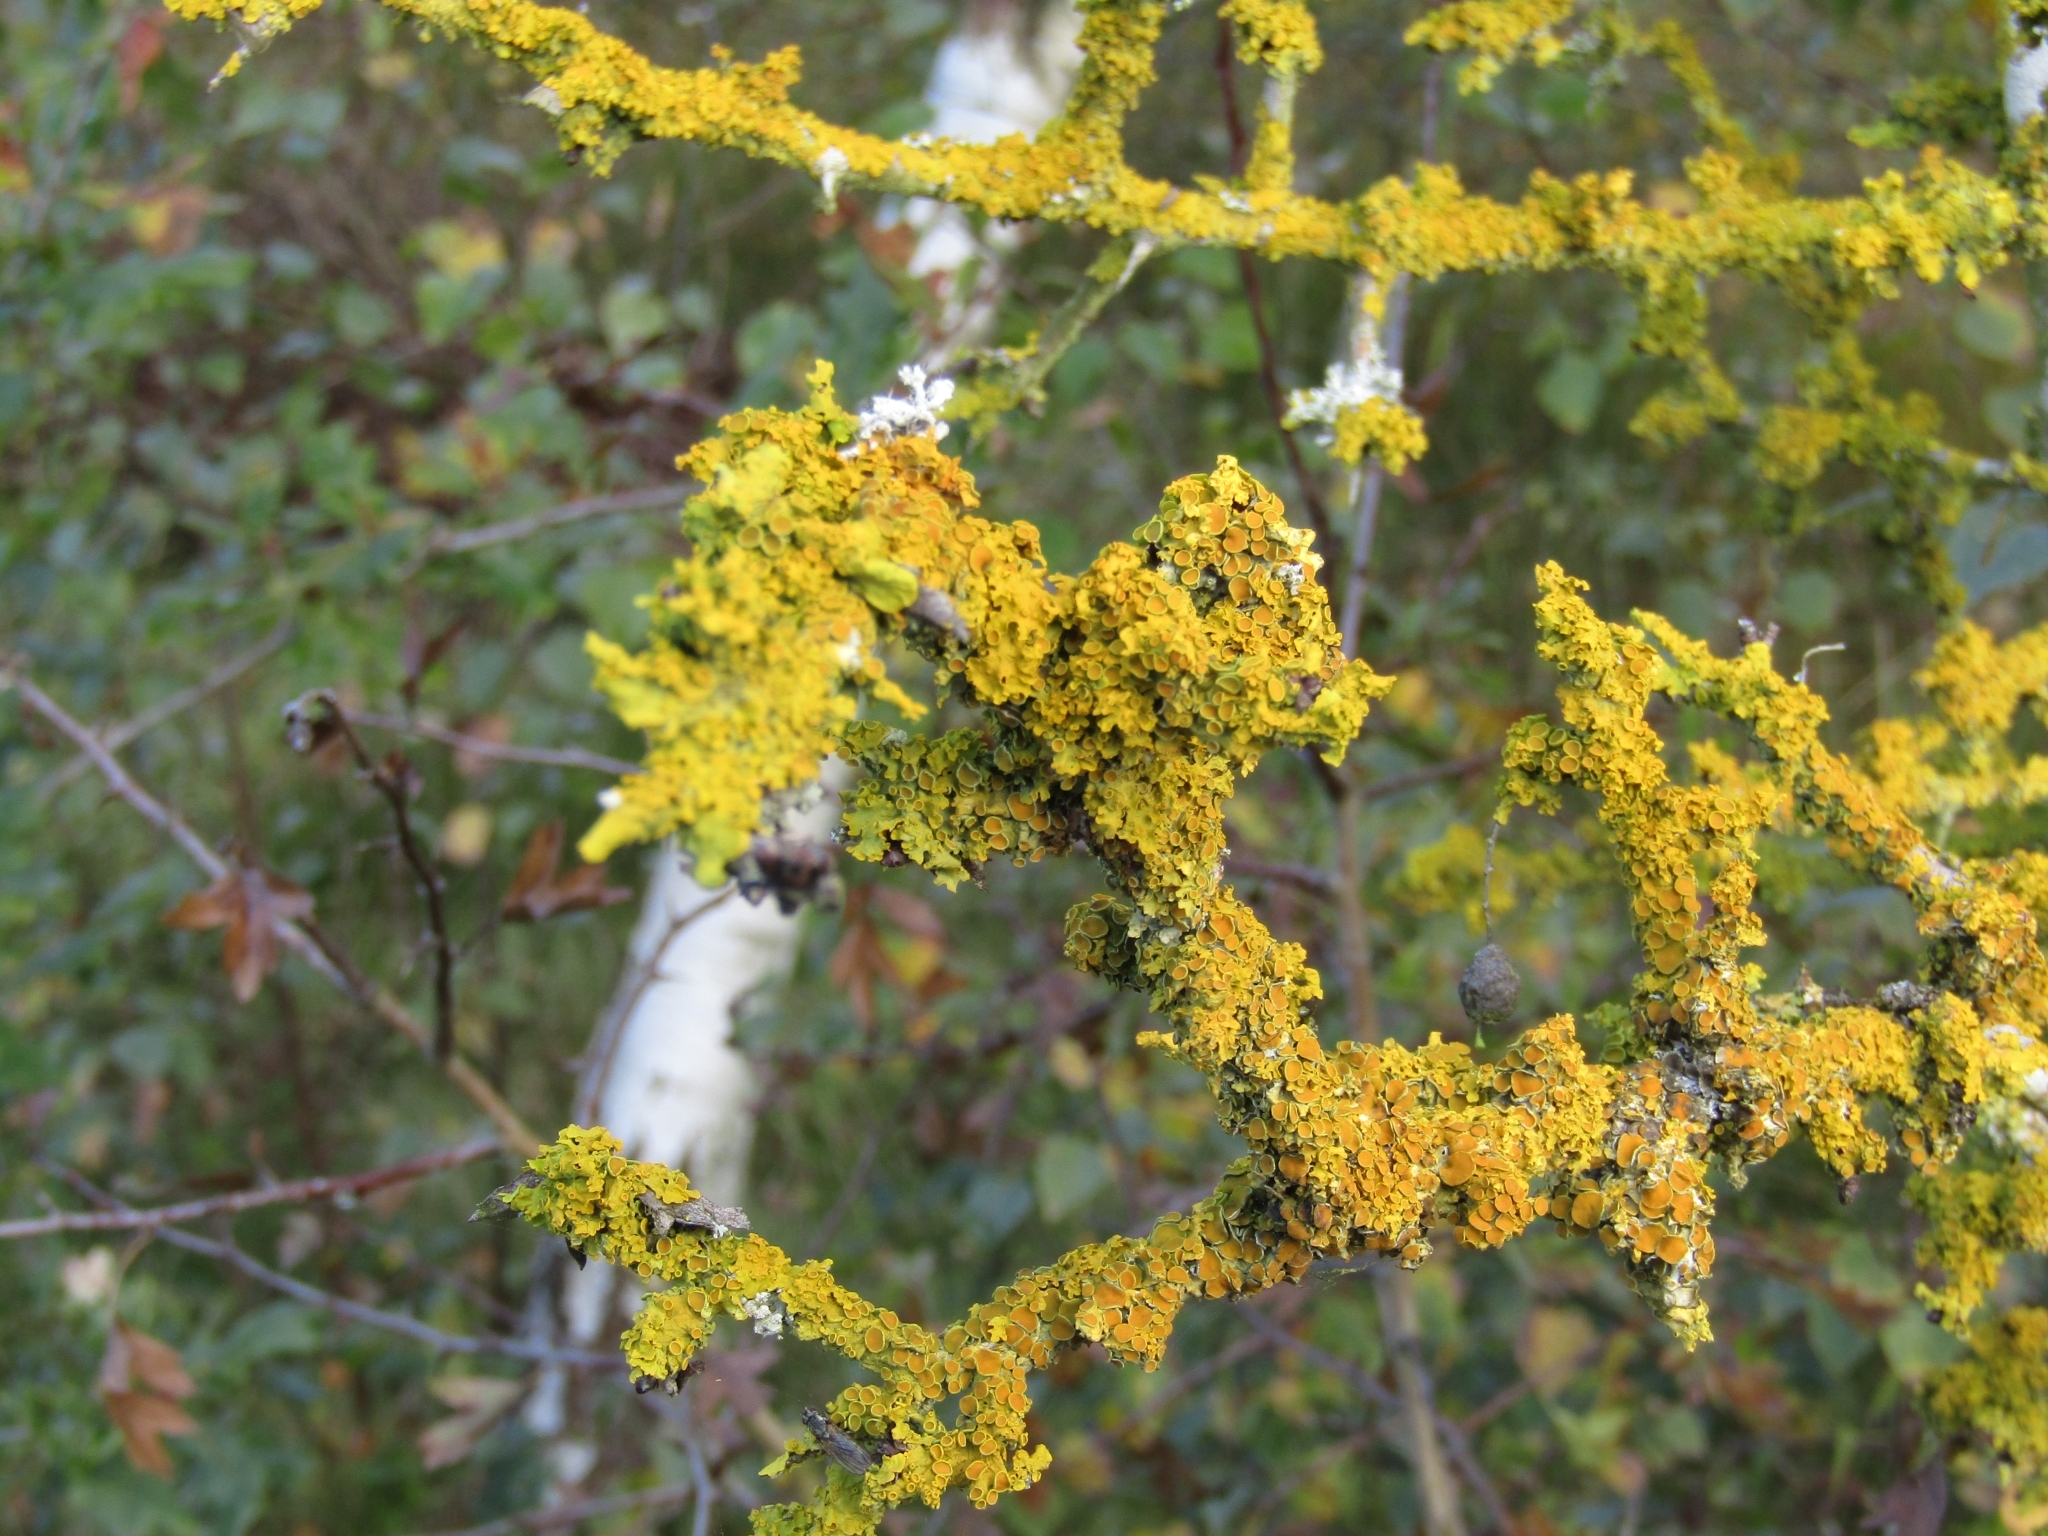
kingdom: Fungi
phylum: Ascomycota
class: Lecanoromycetes
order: Teloschistales
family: Teloschistaceae
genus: Xanthoria
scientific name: Xanthoria parietina
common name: Common orange lichen
